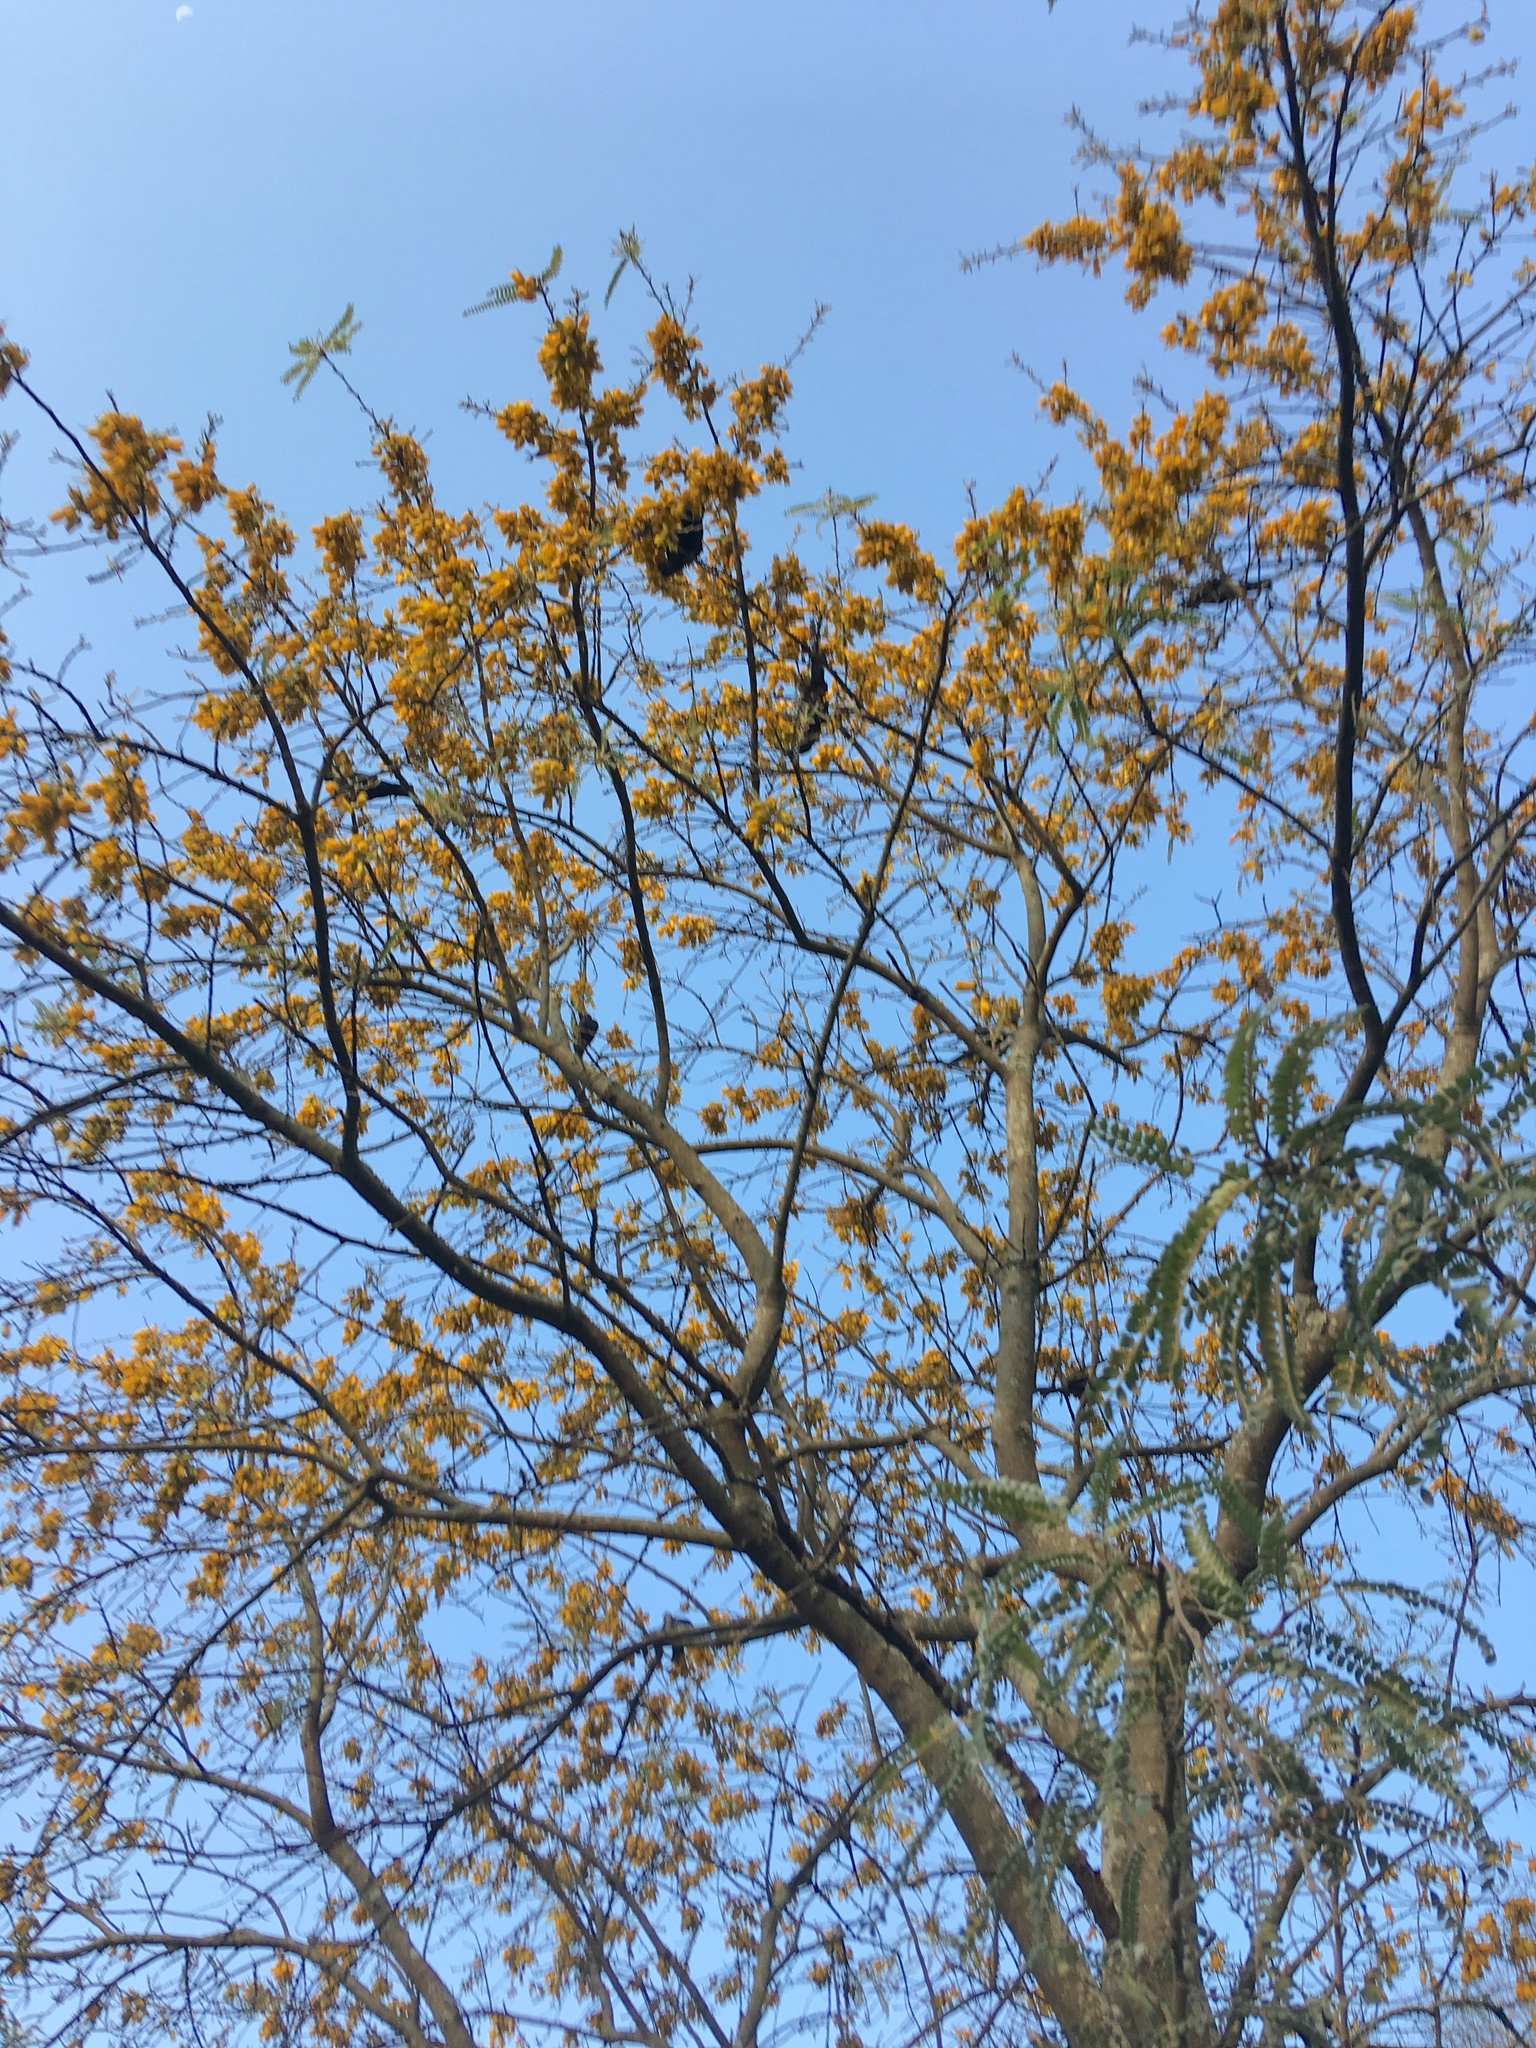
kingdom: Animalia
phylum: Chordata
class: Aves
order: Passeriformes
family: Meliphagidae
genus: Prosthemadera
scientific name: Prosthemadera novaeseelandiae
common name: Tui
